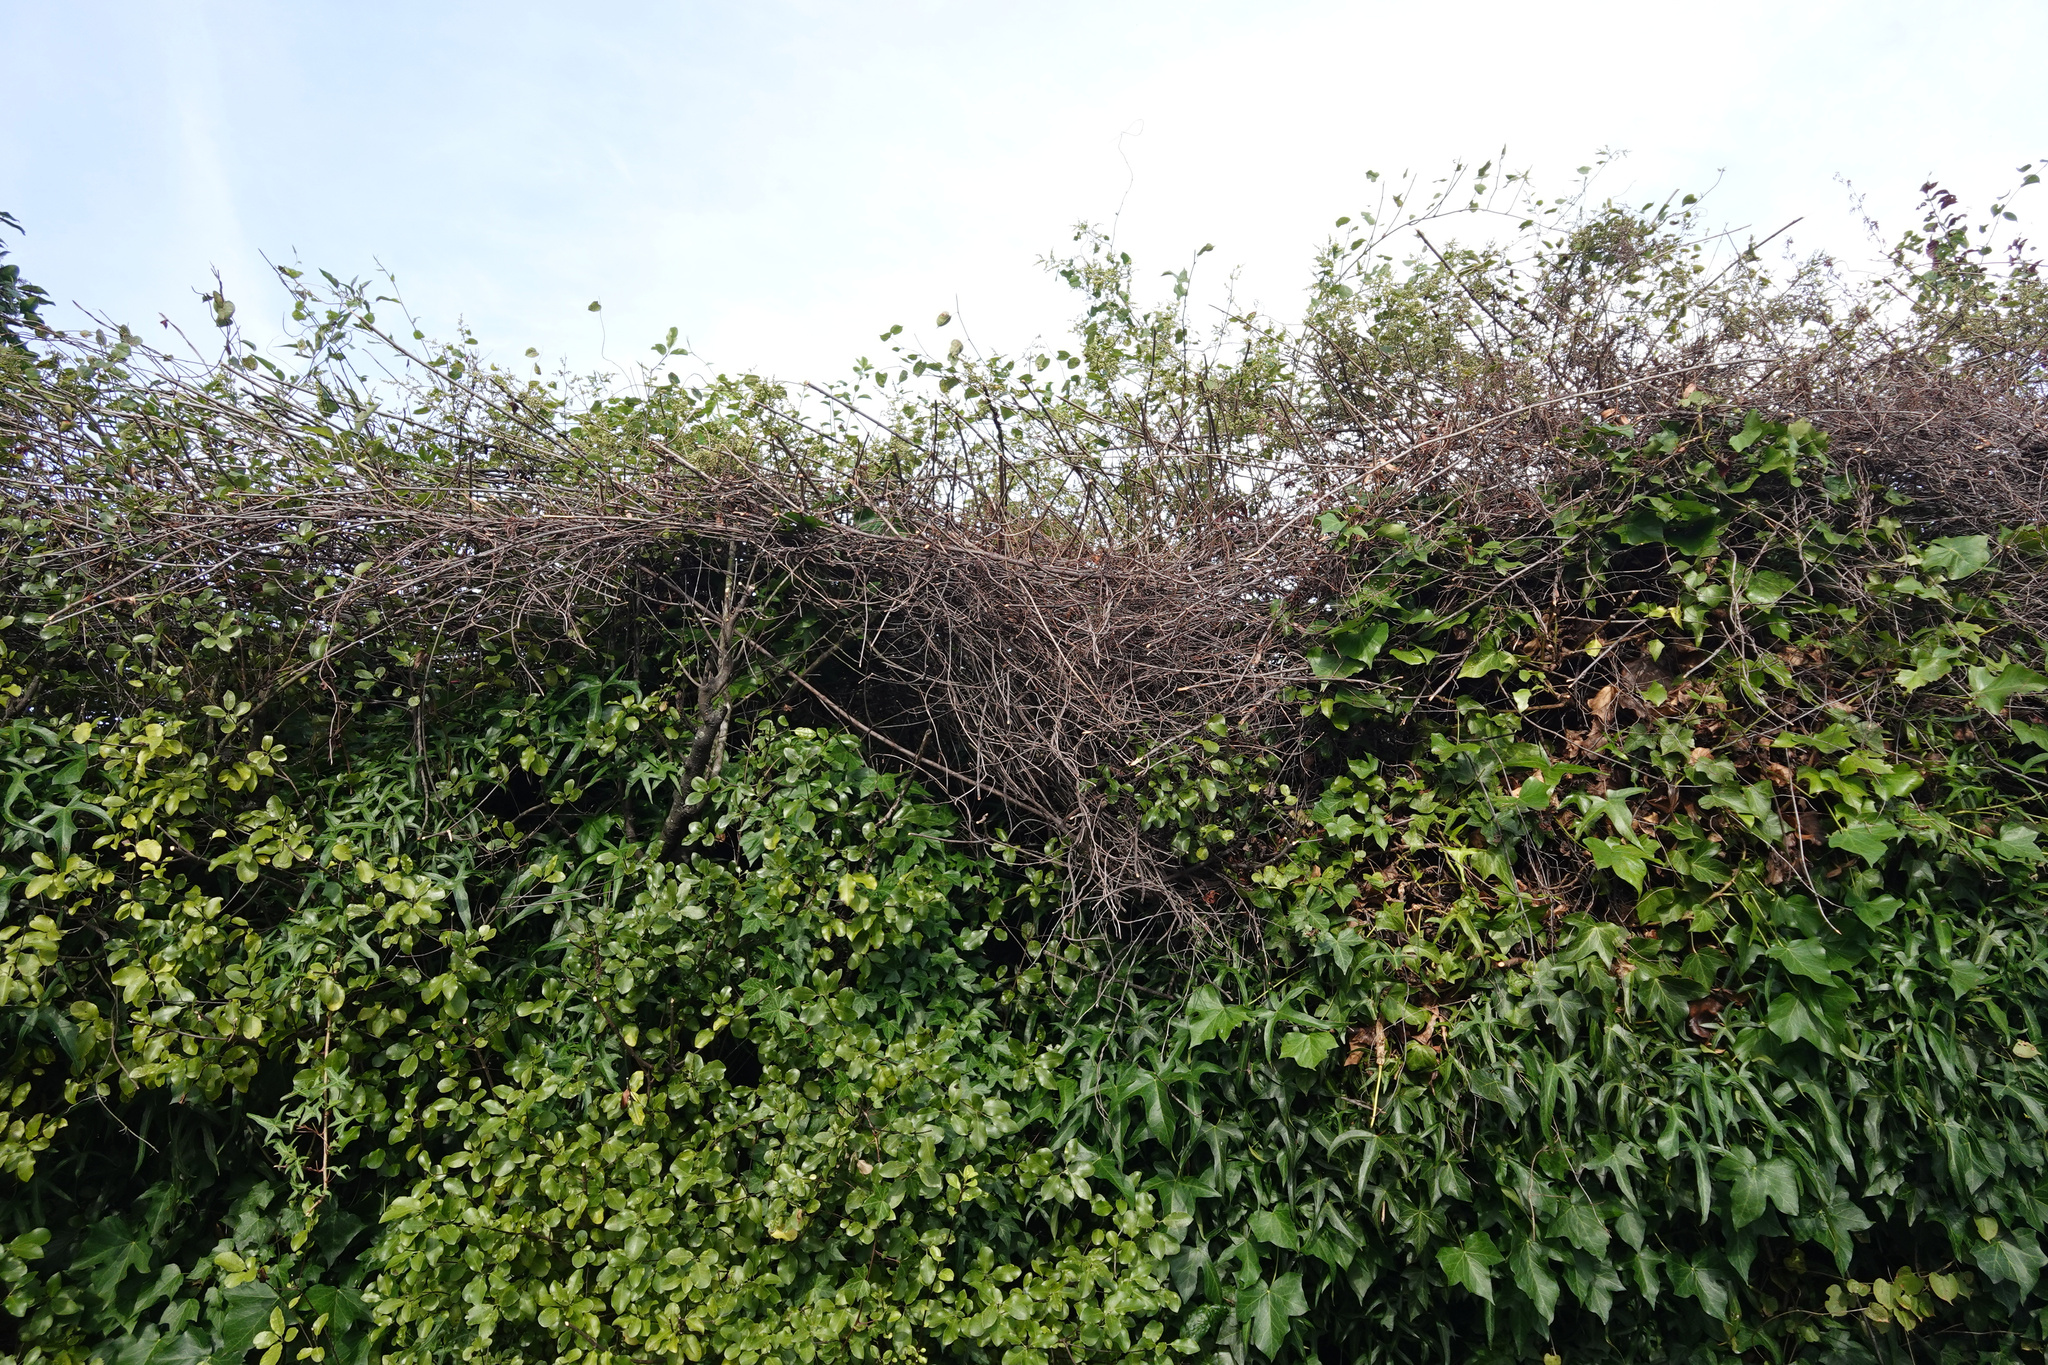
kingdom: Plantae
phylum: Tracheophyta
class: Magnoliopsida
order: Caryophyllales
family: Polygonaceae
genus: Muehlenbeckia
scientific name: Muehlenbeckia australis
